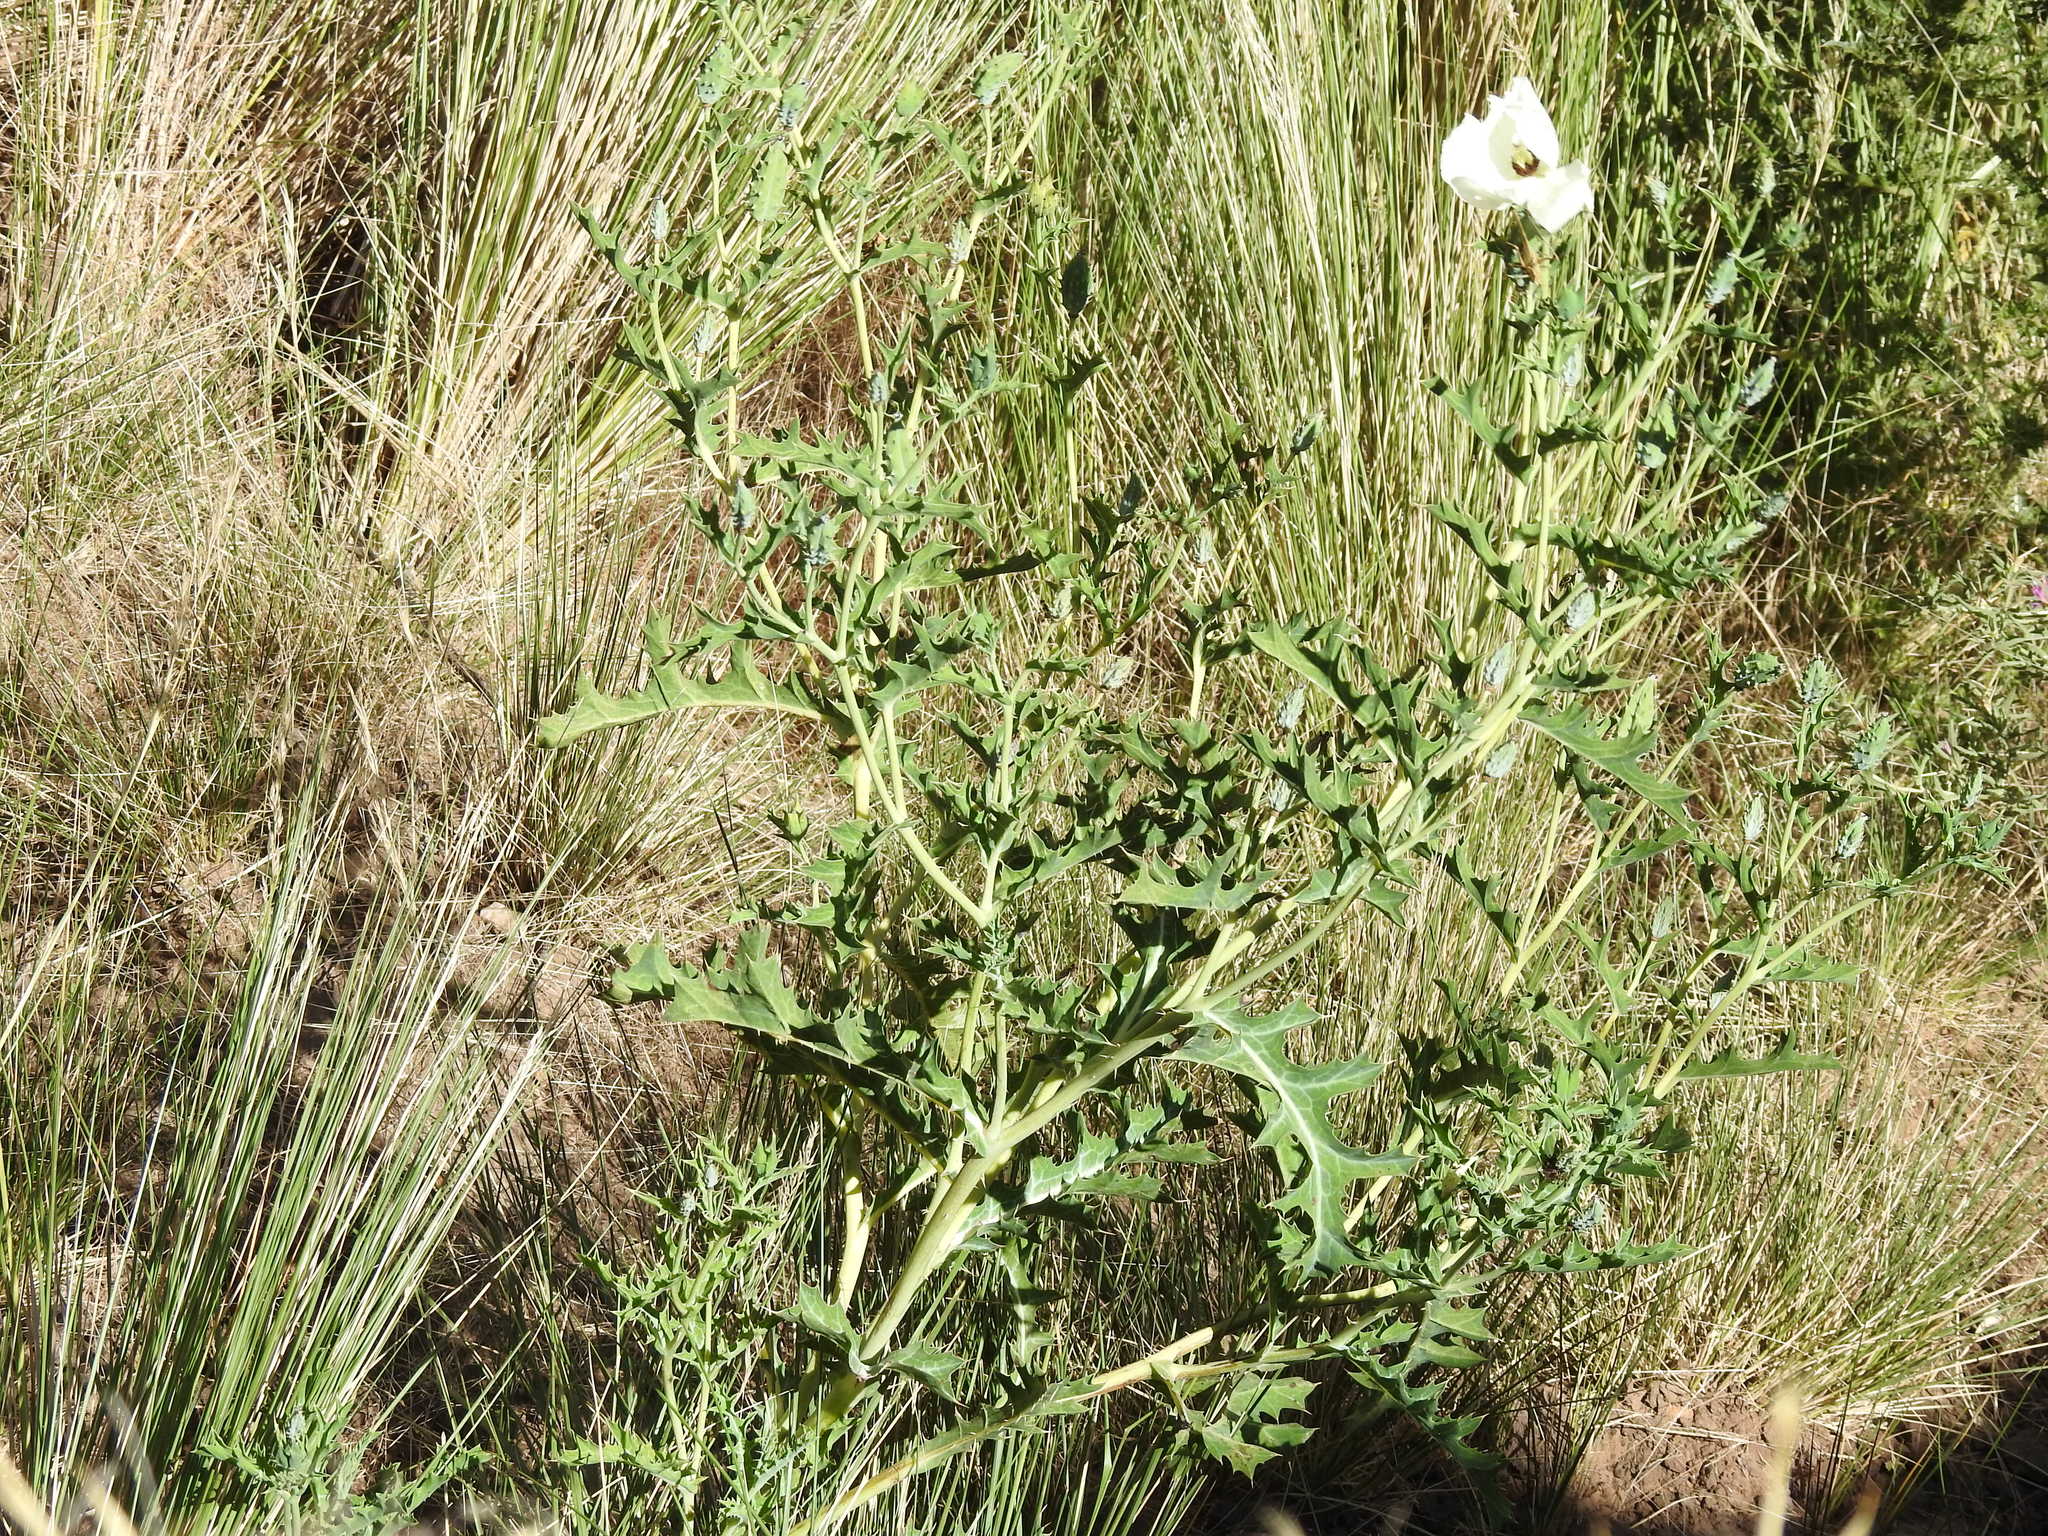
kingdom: Plantae
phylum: Tracheophyta
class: Magnoliopsida
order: Ranunculales
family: Papaveraceae
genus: Argemone
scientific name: Argemone subfusiformis
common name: American-poppy
